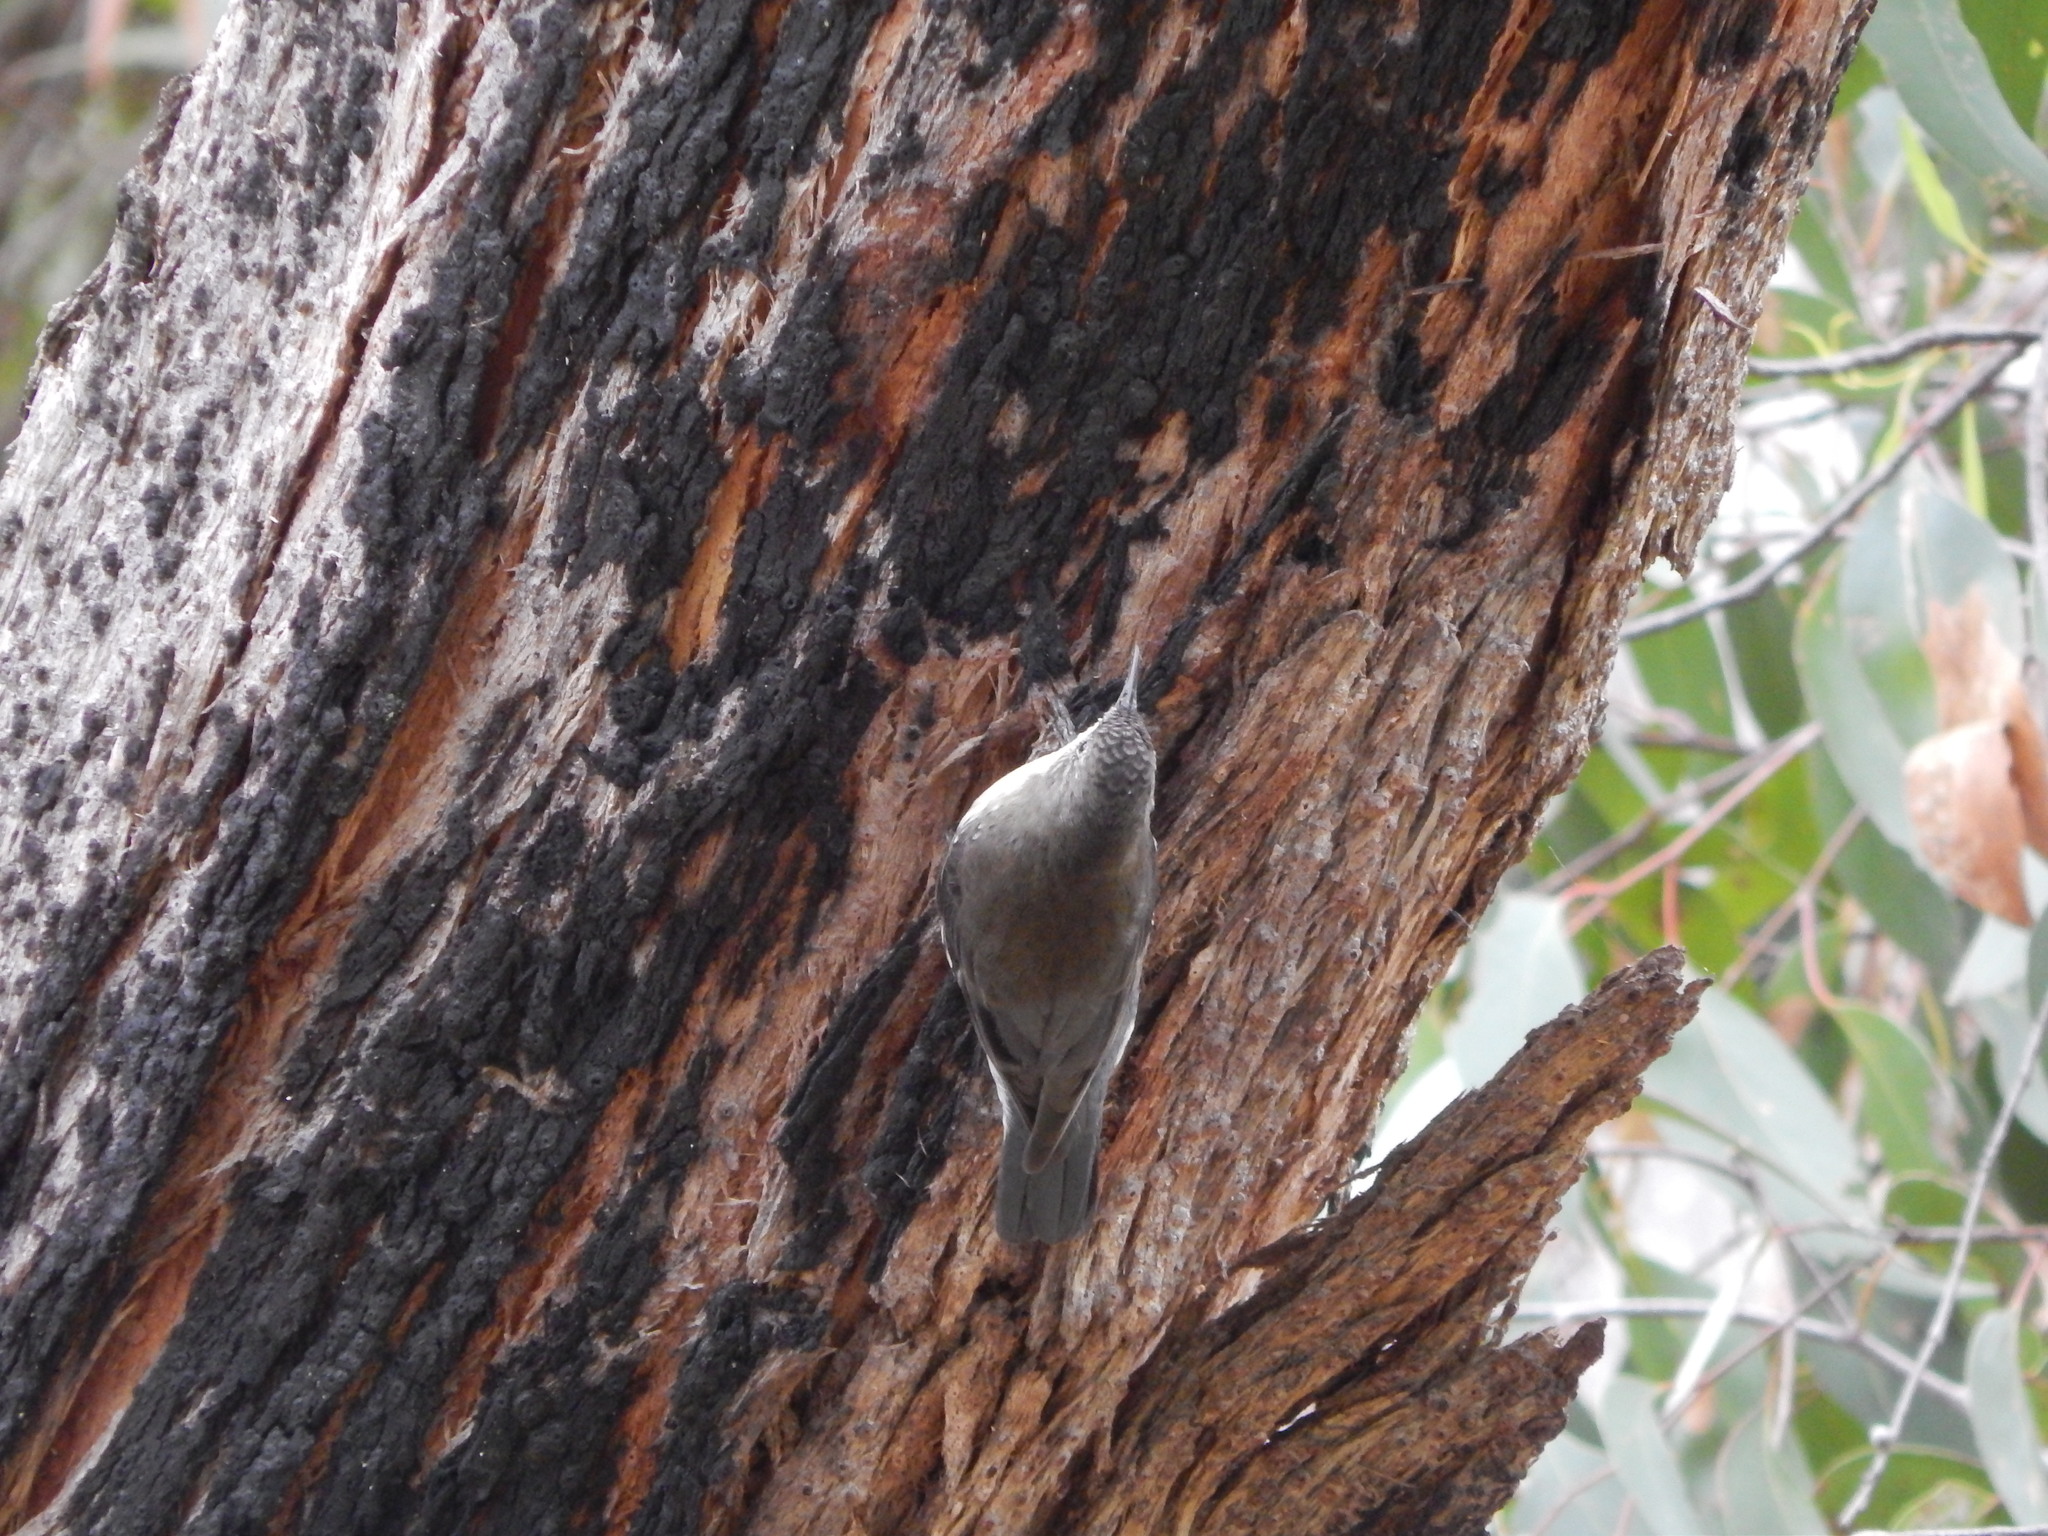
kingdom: Animalia
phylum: Chordata
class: Aves
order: Passeriformes
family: Climacteridae
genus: Cormobates
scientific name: Cormobates leucophaea
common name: White-throated treecreeper
